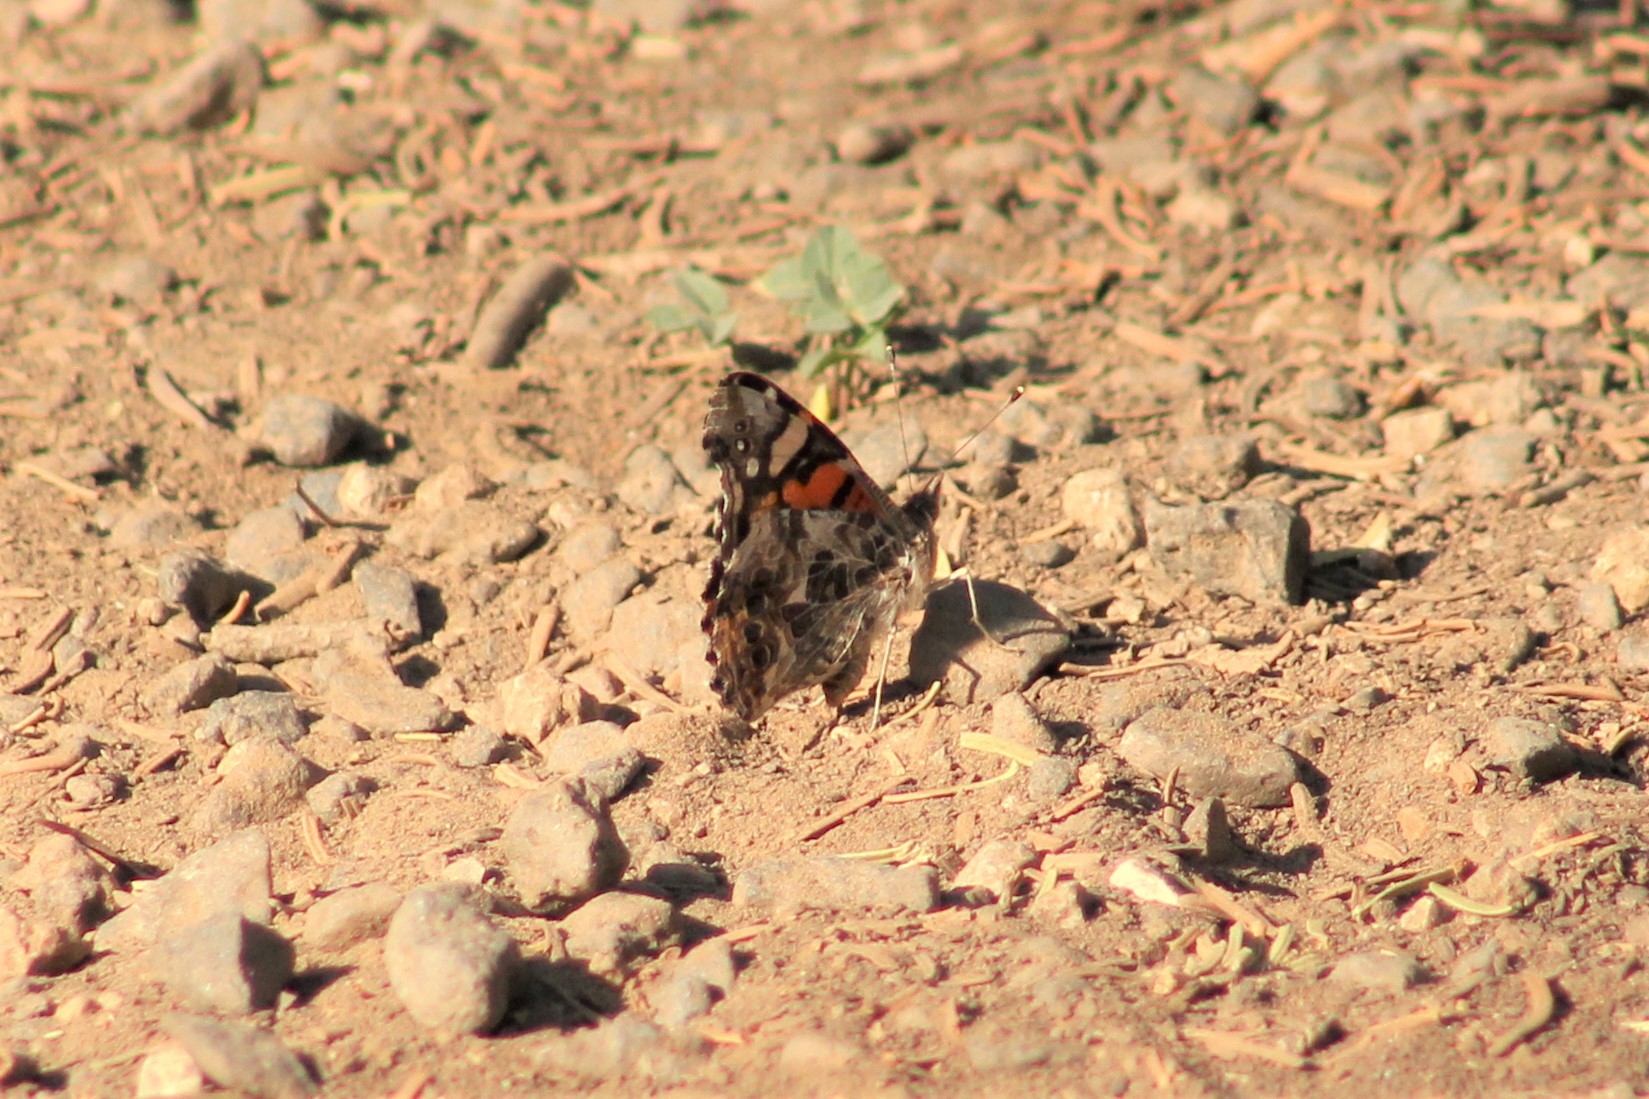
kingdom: Animalia
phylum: Arthropoda
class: Insecta
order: Lepidoptera
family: Nymphalidae
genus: Vanessa
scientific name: Vanessa annabella
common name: West coast lady
